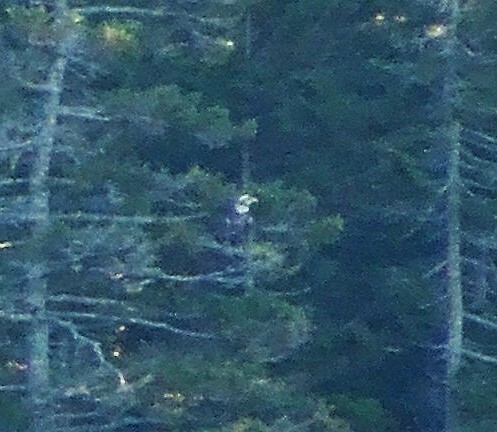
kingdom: Animalia
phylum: Chordata
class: Aves
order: Accipitriformes
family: Accipitridae
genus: Haliaeetus
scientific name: Haliaeetus leucocephalus
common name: Bald eagle
